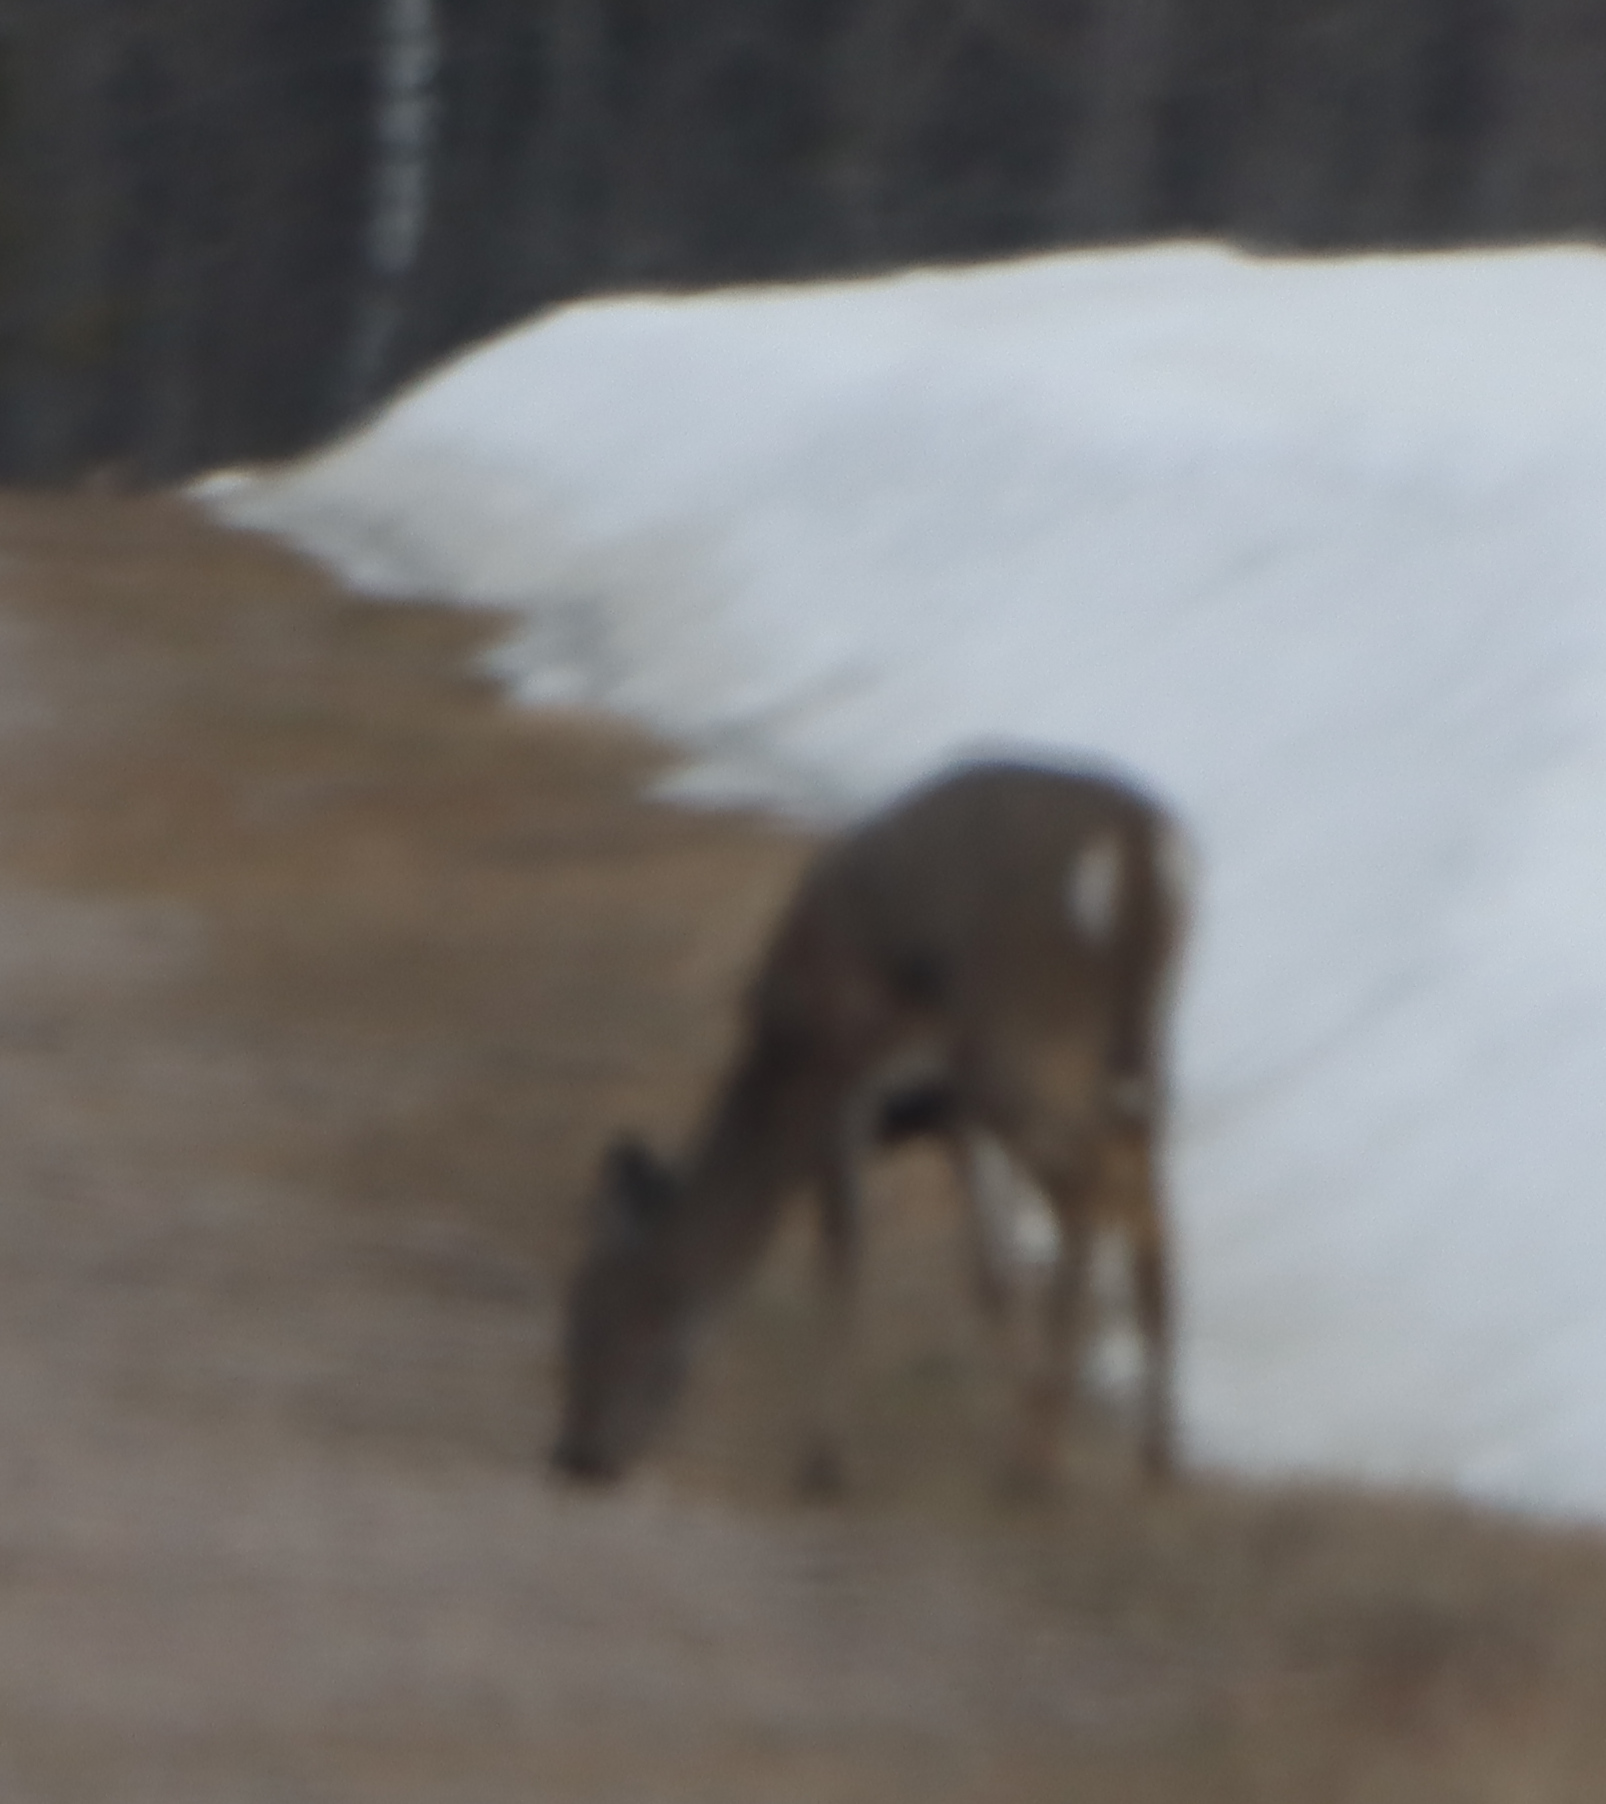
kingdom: Animalia
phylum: Chordata
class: Mammalia
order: Artiodactyla
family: Cervidae
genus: Odocoileus
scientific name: Odocoileus virginianus
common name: White-tailed deer
